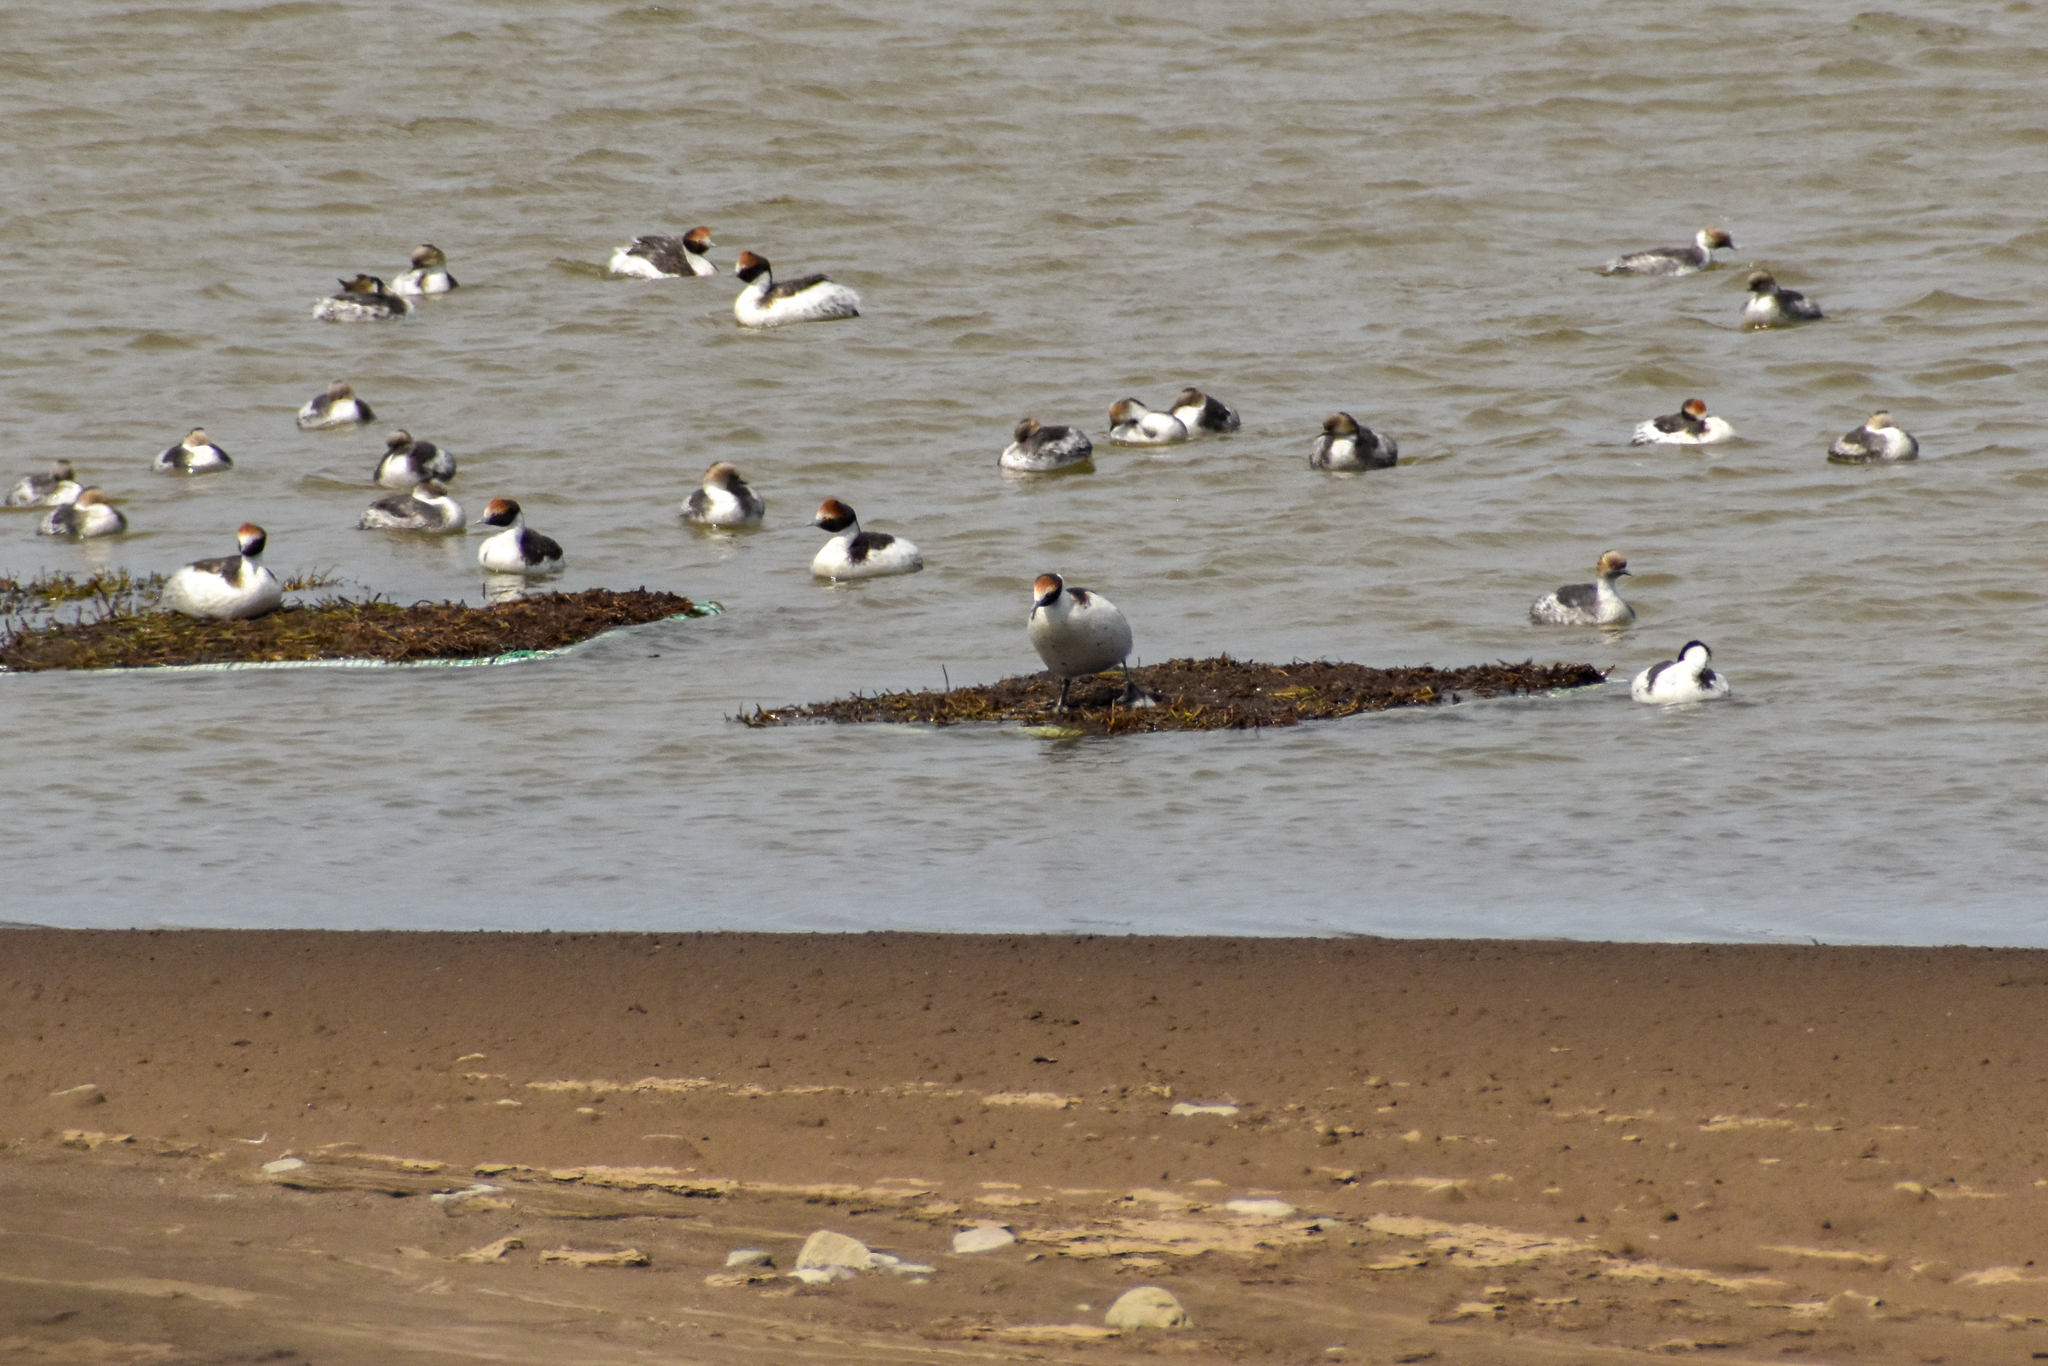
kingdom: Animalia
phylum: Chordata
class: Aves
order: Podicipediformes
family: Podicipedidae
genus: Podiceps
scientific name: Podiceps gallardoi
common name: Hooded grebe
